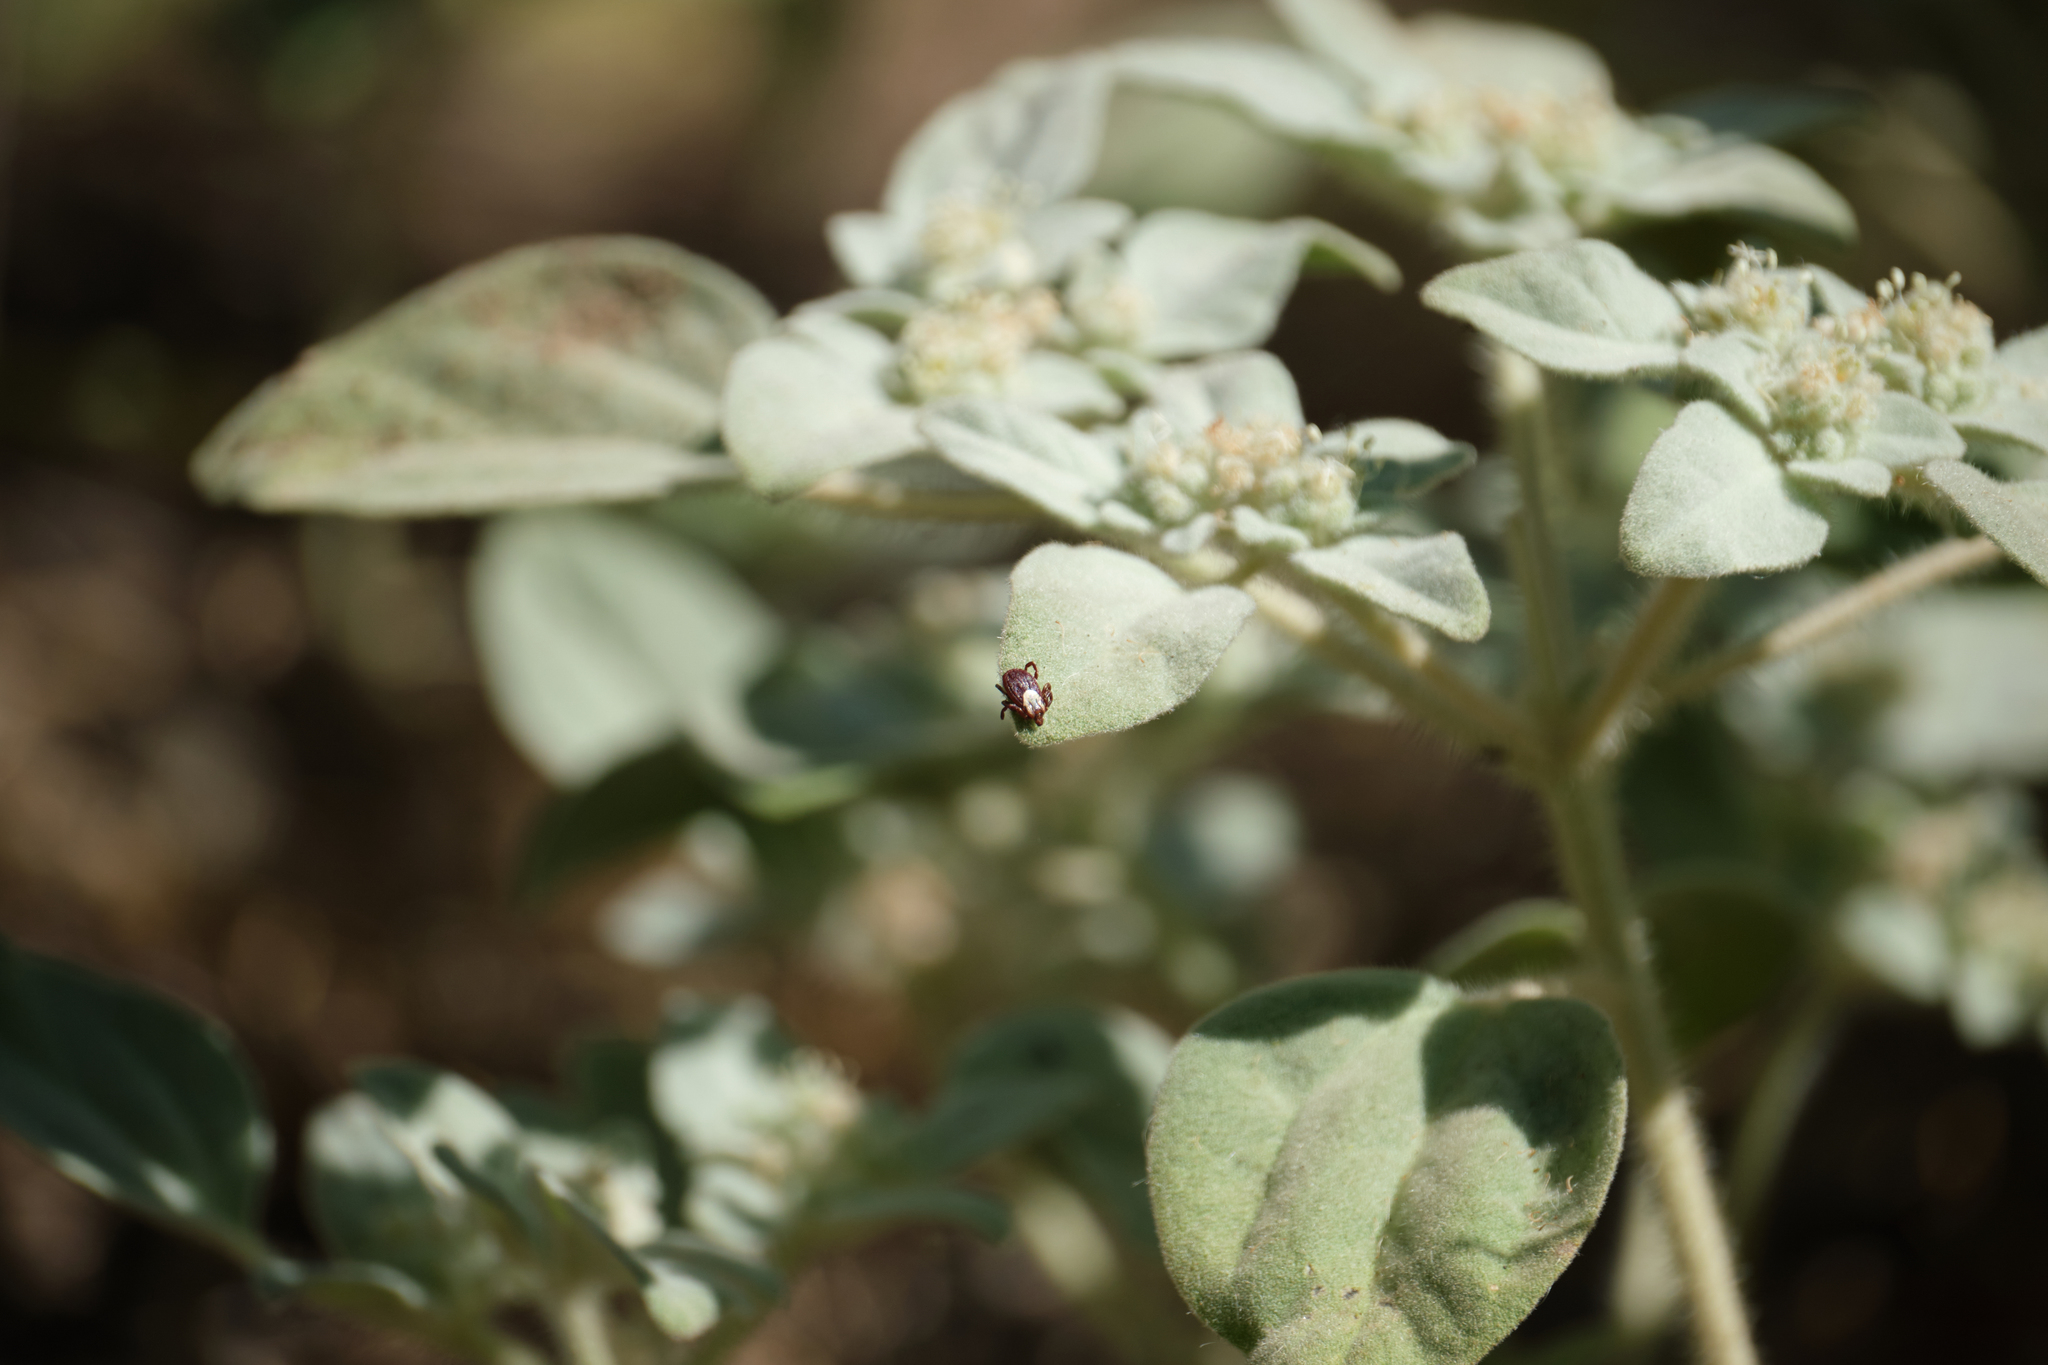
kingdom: Plantae
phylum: Tracheophyta
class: Magnoliopsida
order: Malpighiales
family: Euphorbiaceae
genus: Croton
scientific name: Croton setiger
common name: Dove weed
